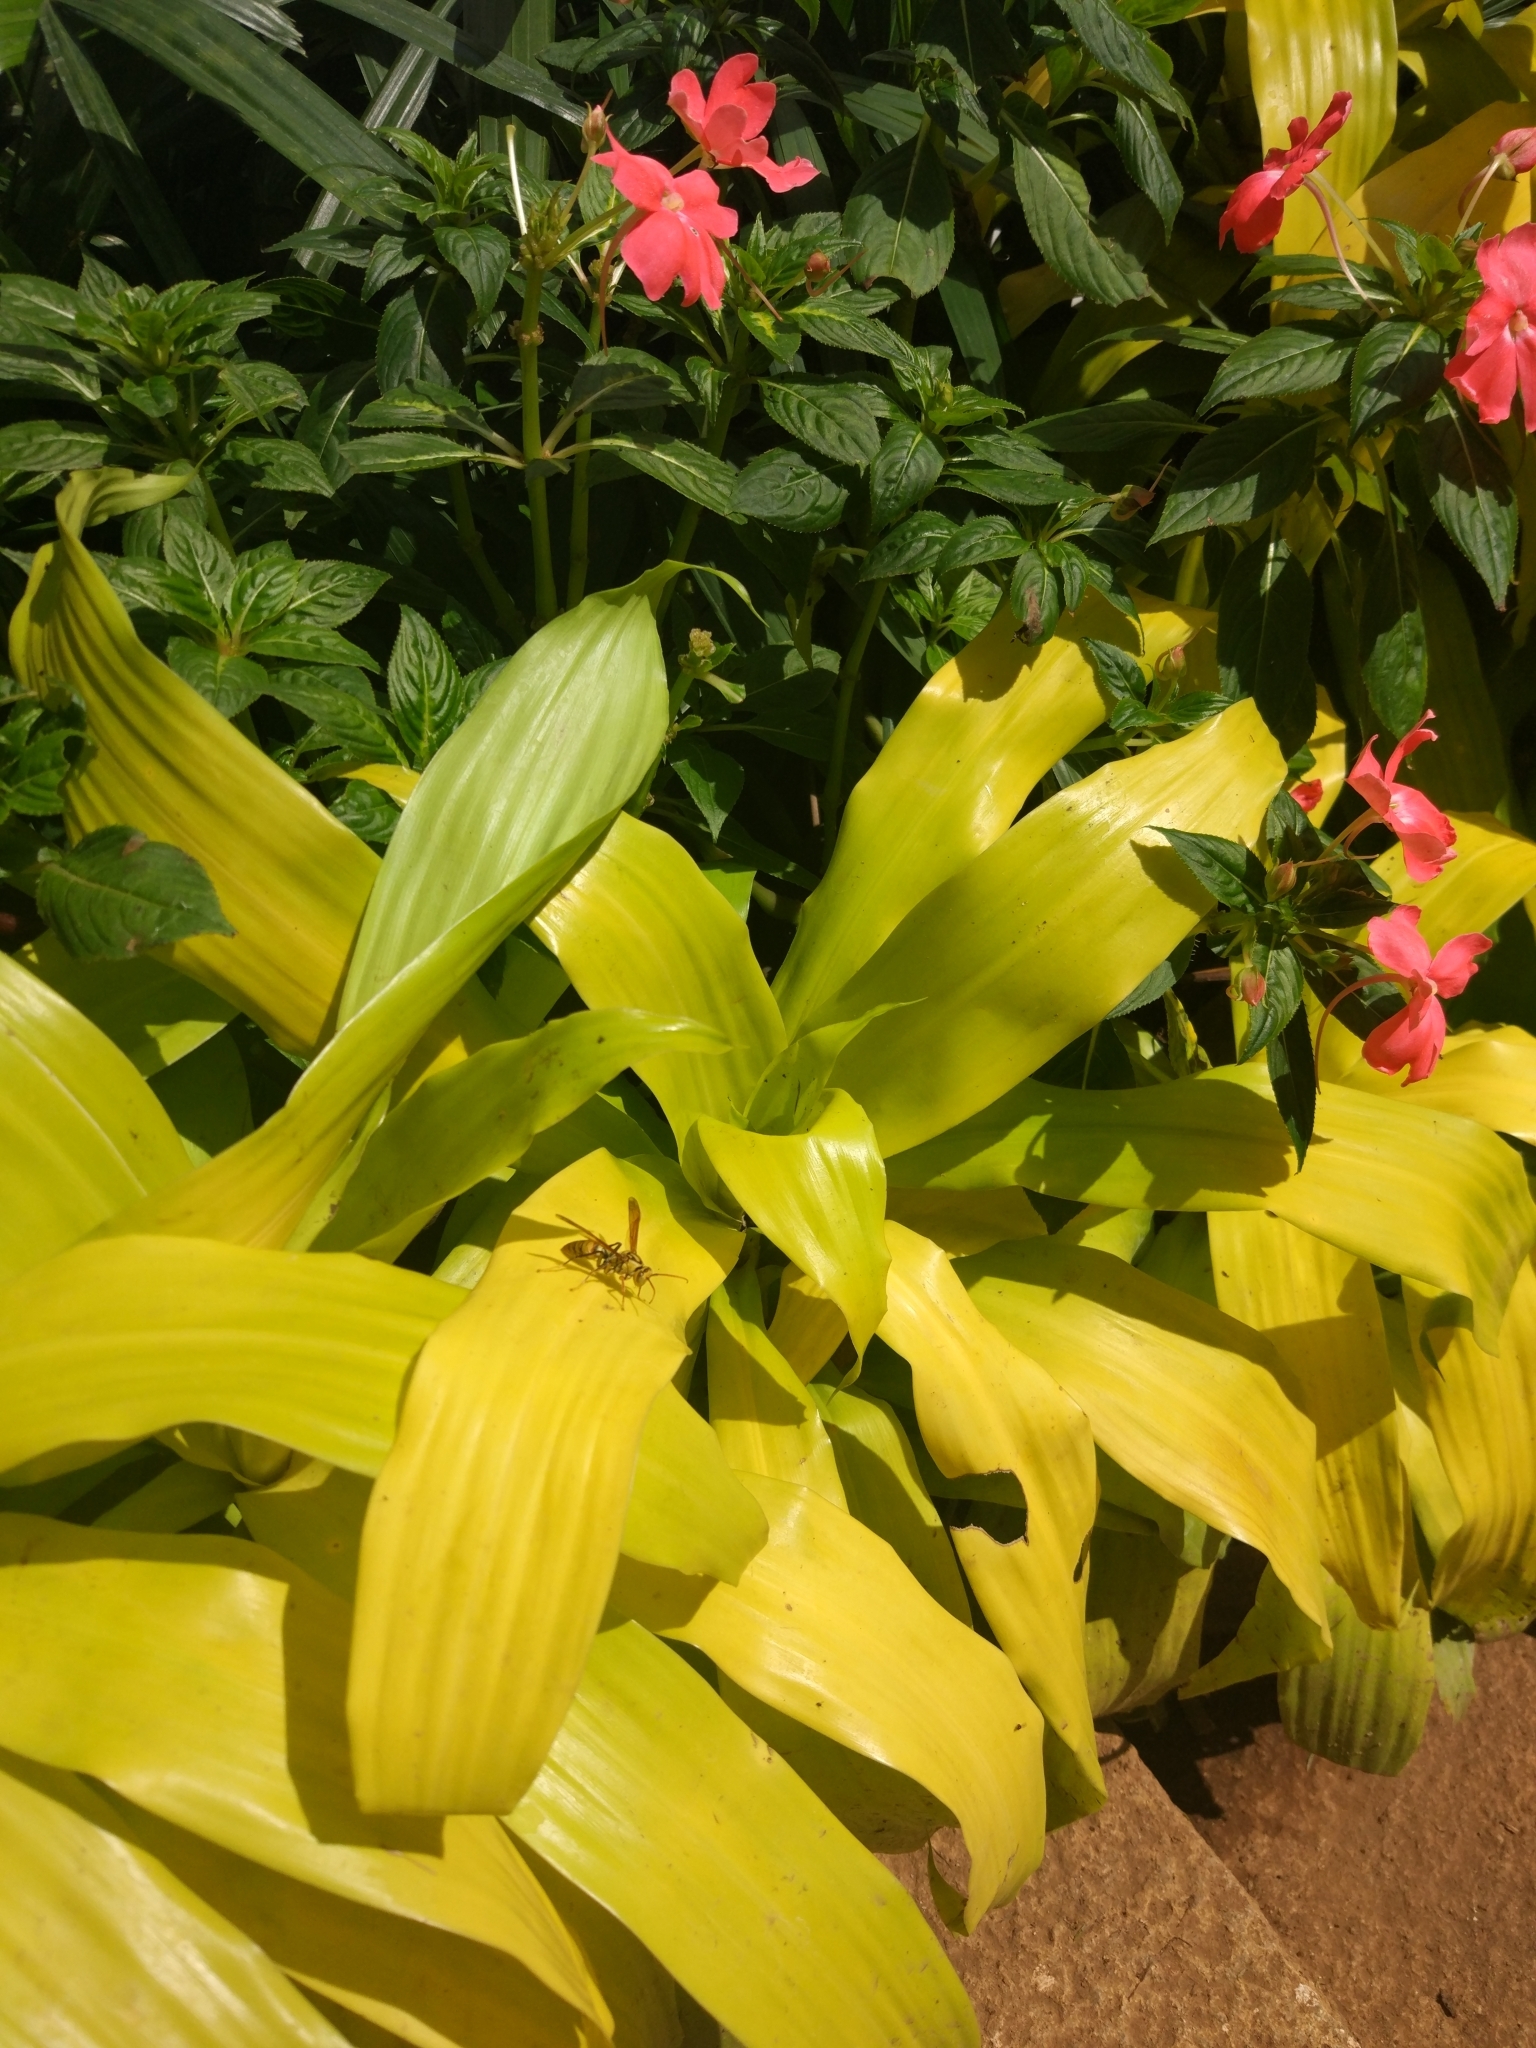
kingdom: Animalia
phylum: Arthropoda
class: Insecta
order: Hymenoptera
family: Eumenidae
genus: Polistes
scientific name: Polistes rothneyi
